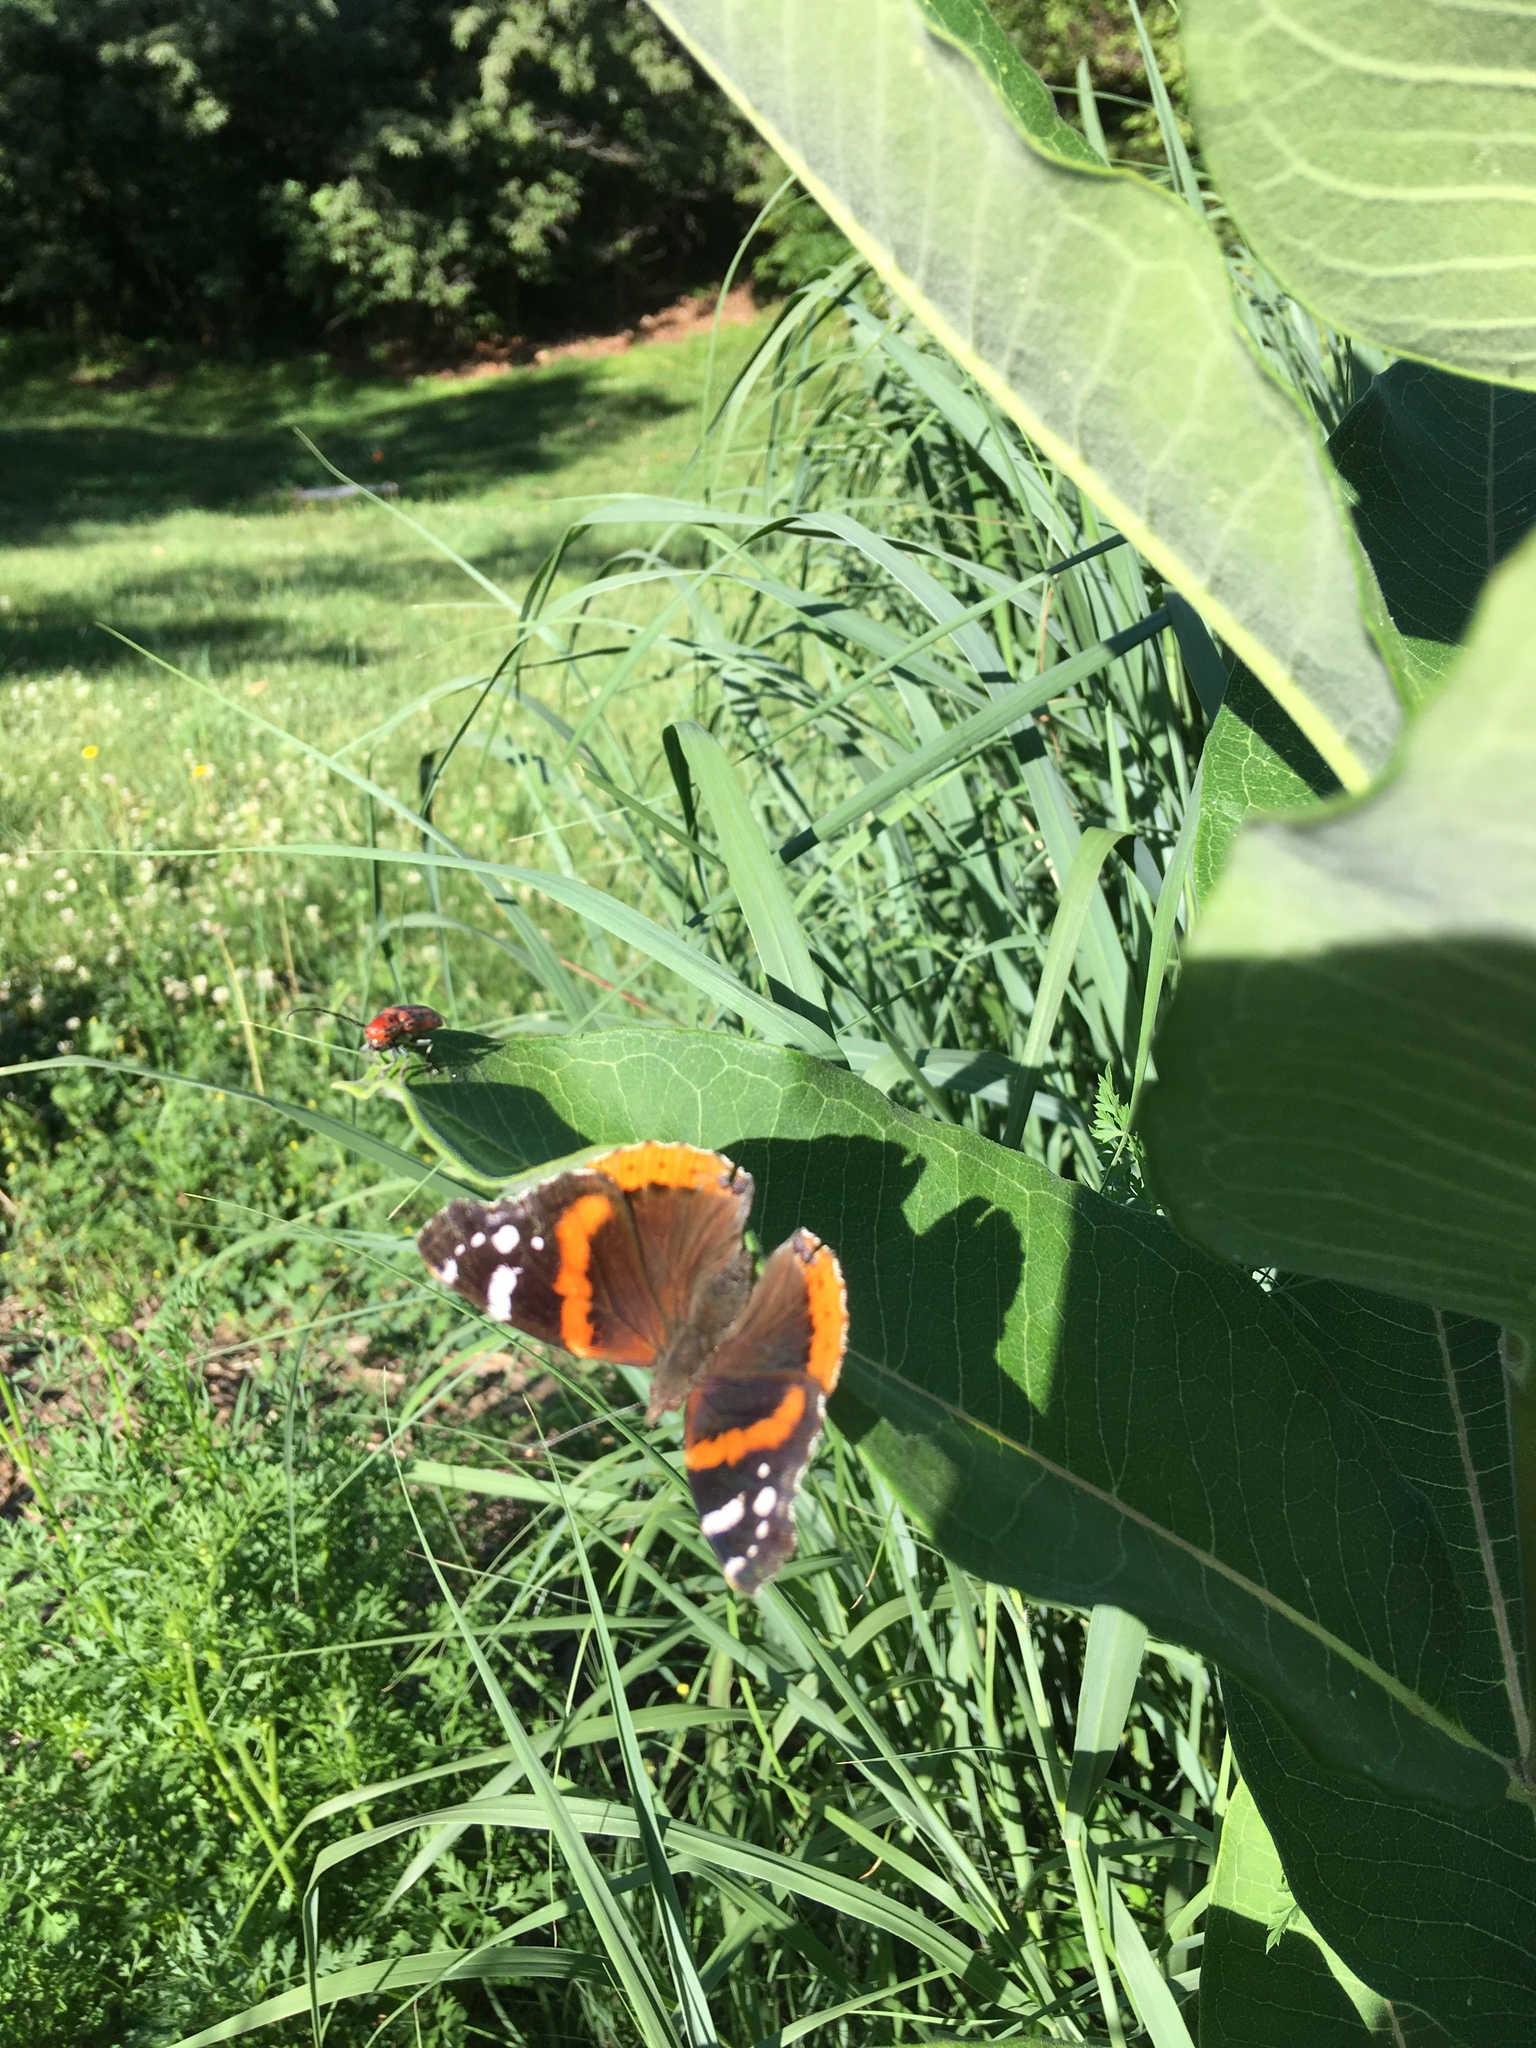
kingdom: Animalia
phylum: Arthropoda
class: Insecta
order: Lepidoptera
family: Nymphalidae
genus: Vanessa
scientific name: Vanessa atalanta
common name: Red admiral
